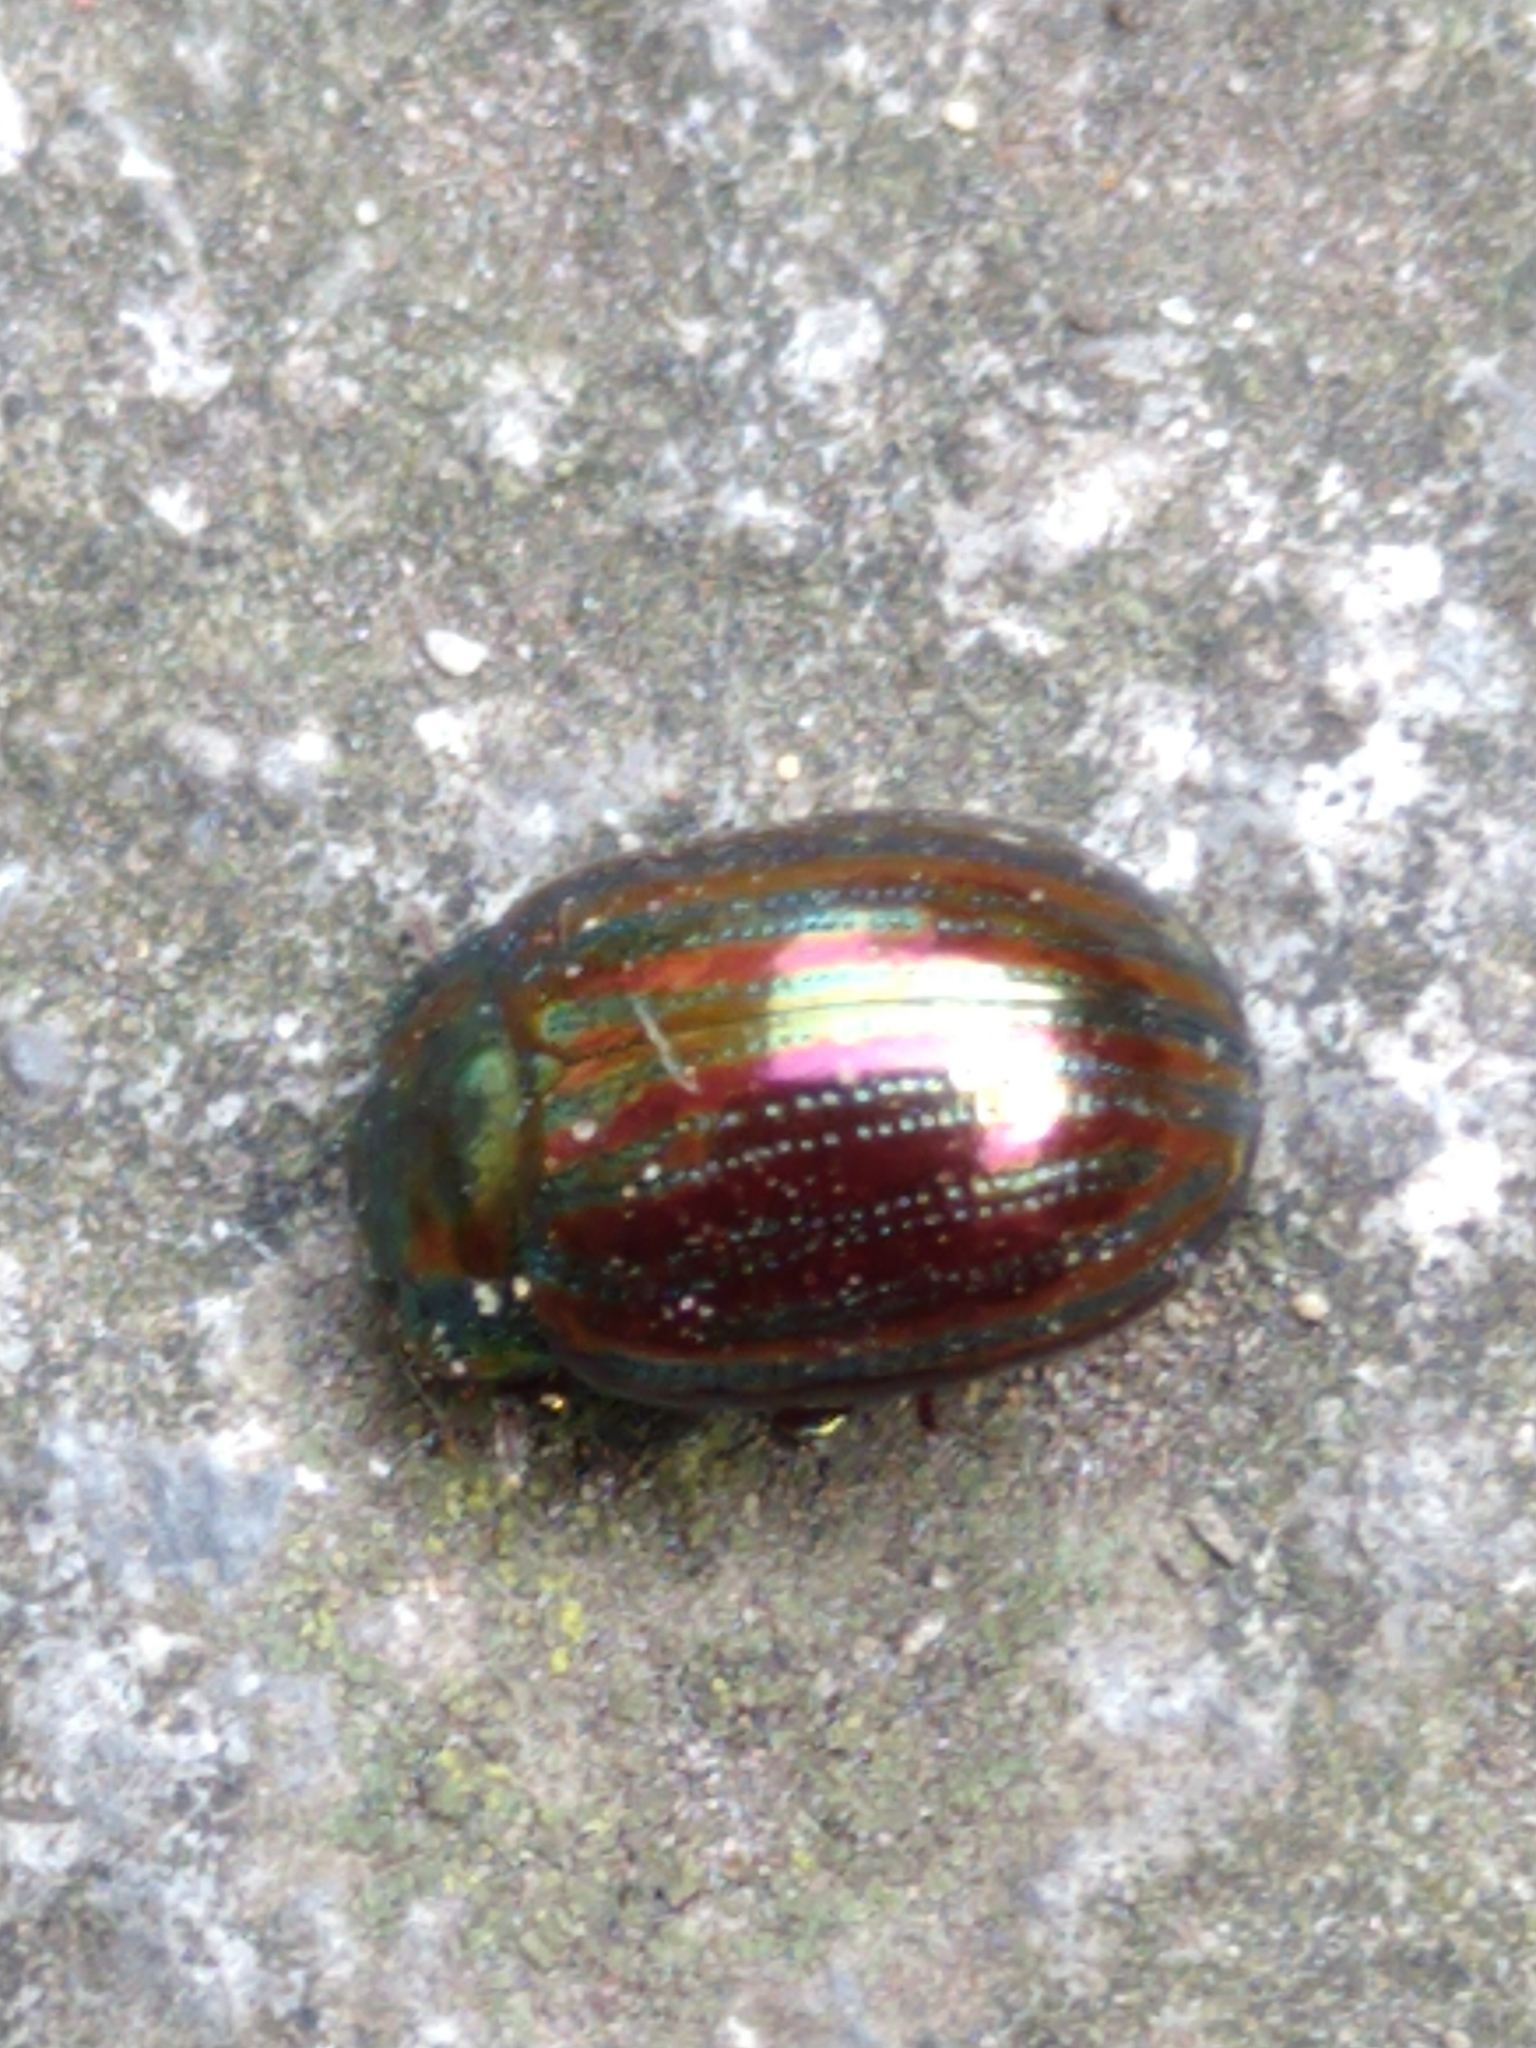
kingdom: Animalia
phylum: Arthropoda
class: Insecta
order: Coleoptera
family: Chrysomelidae
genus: Chrysolina
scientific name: Chrysolina americana
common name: Rosemary beetle
